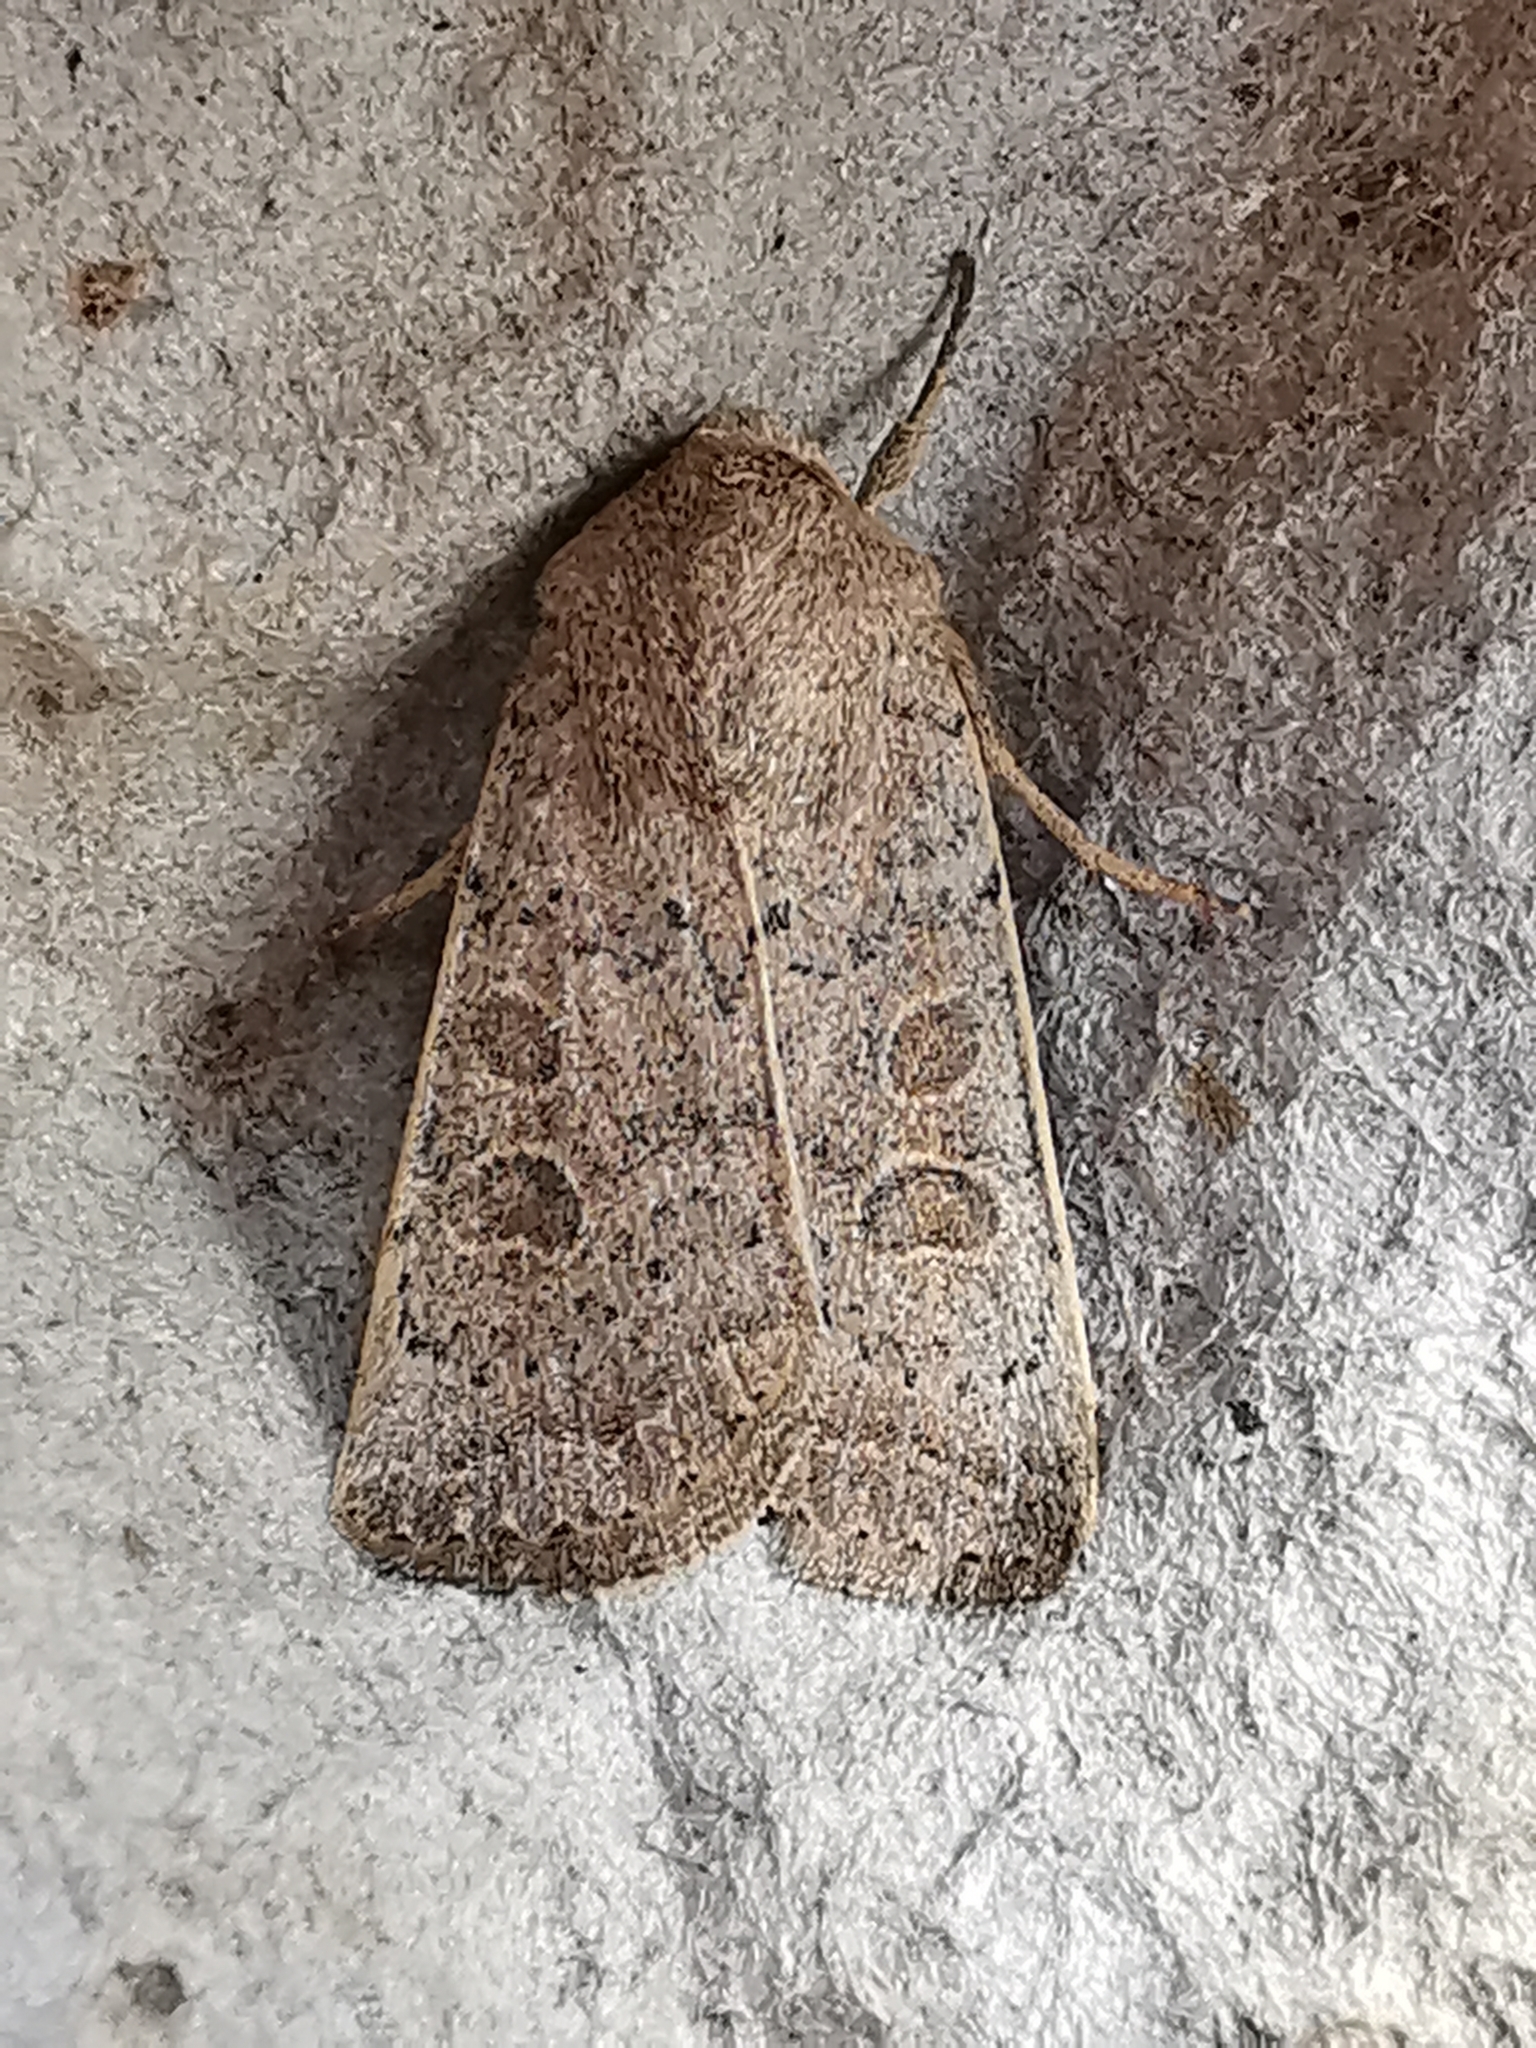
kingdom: Animalia
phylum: Arthropoda
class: Insecta
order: Lepidoptera
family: Noctuidae
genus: Hoplodrina
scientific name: Hoplodrina ambigua
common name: Vine's rustic
